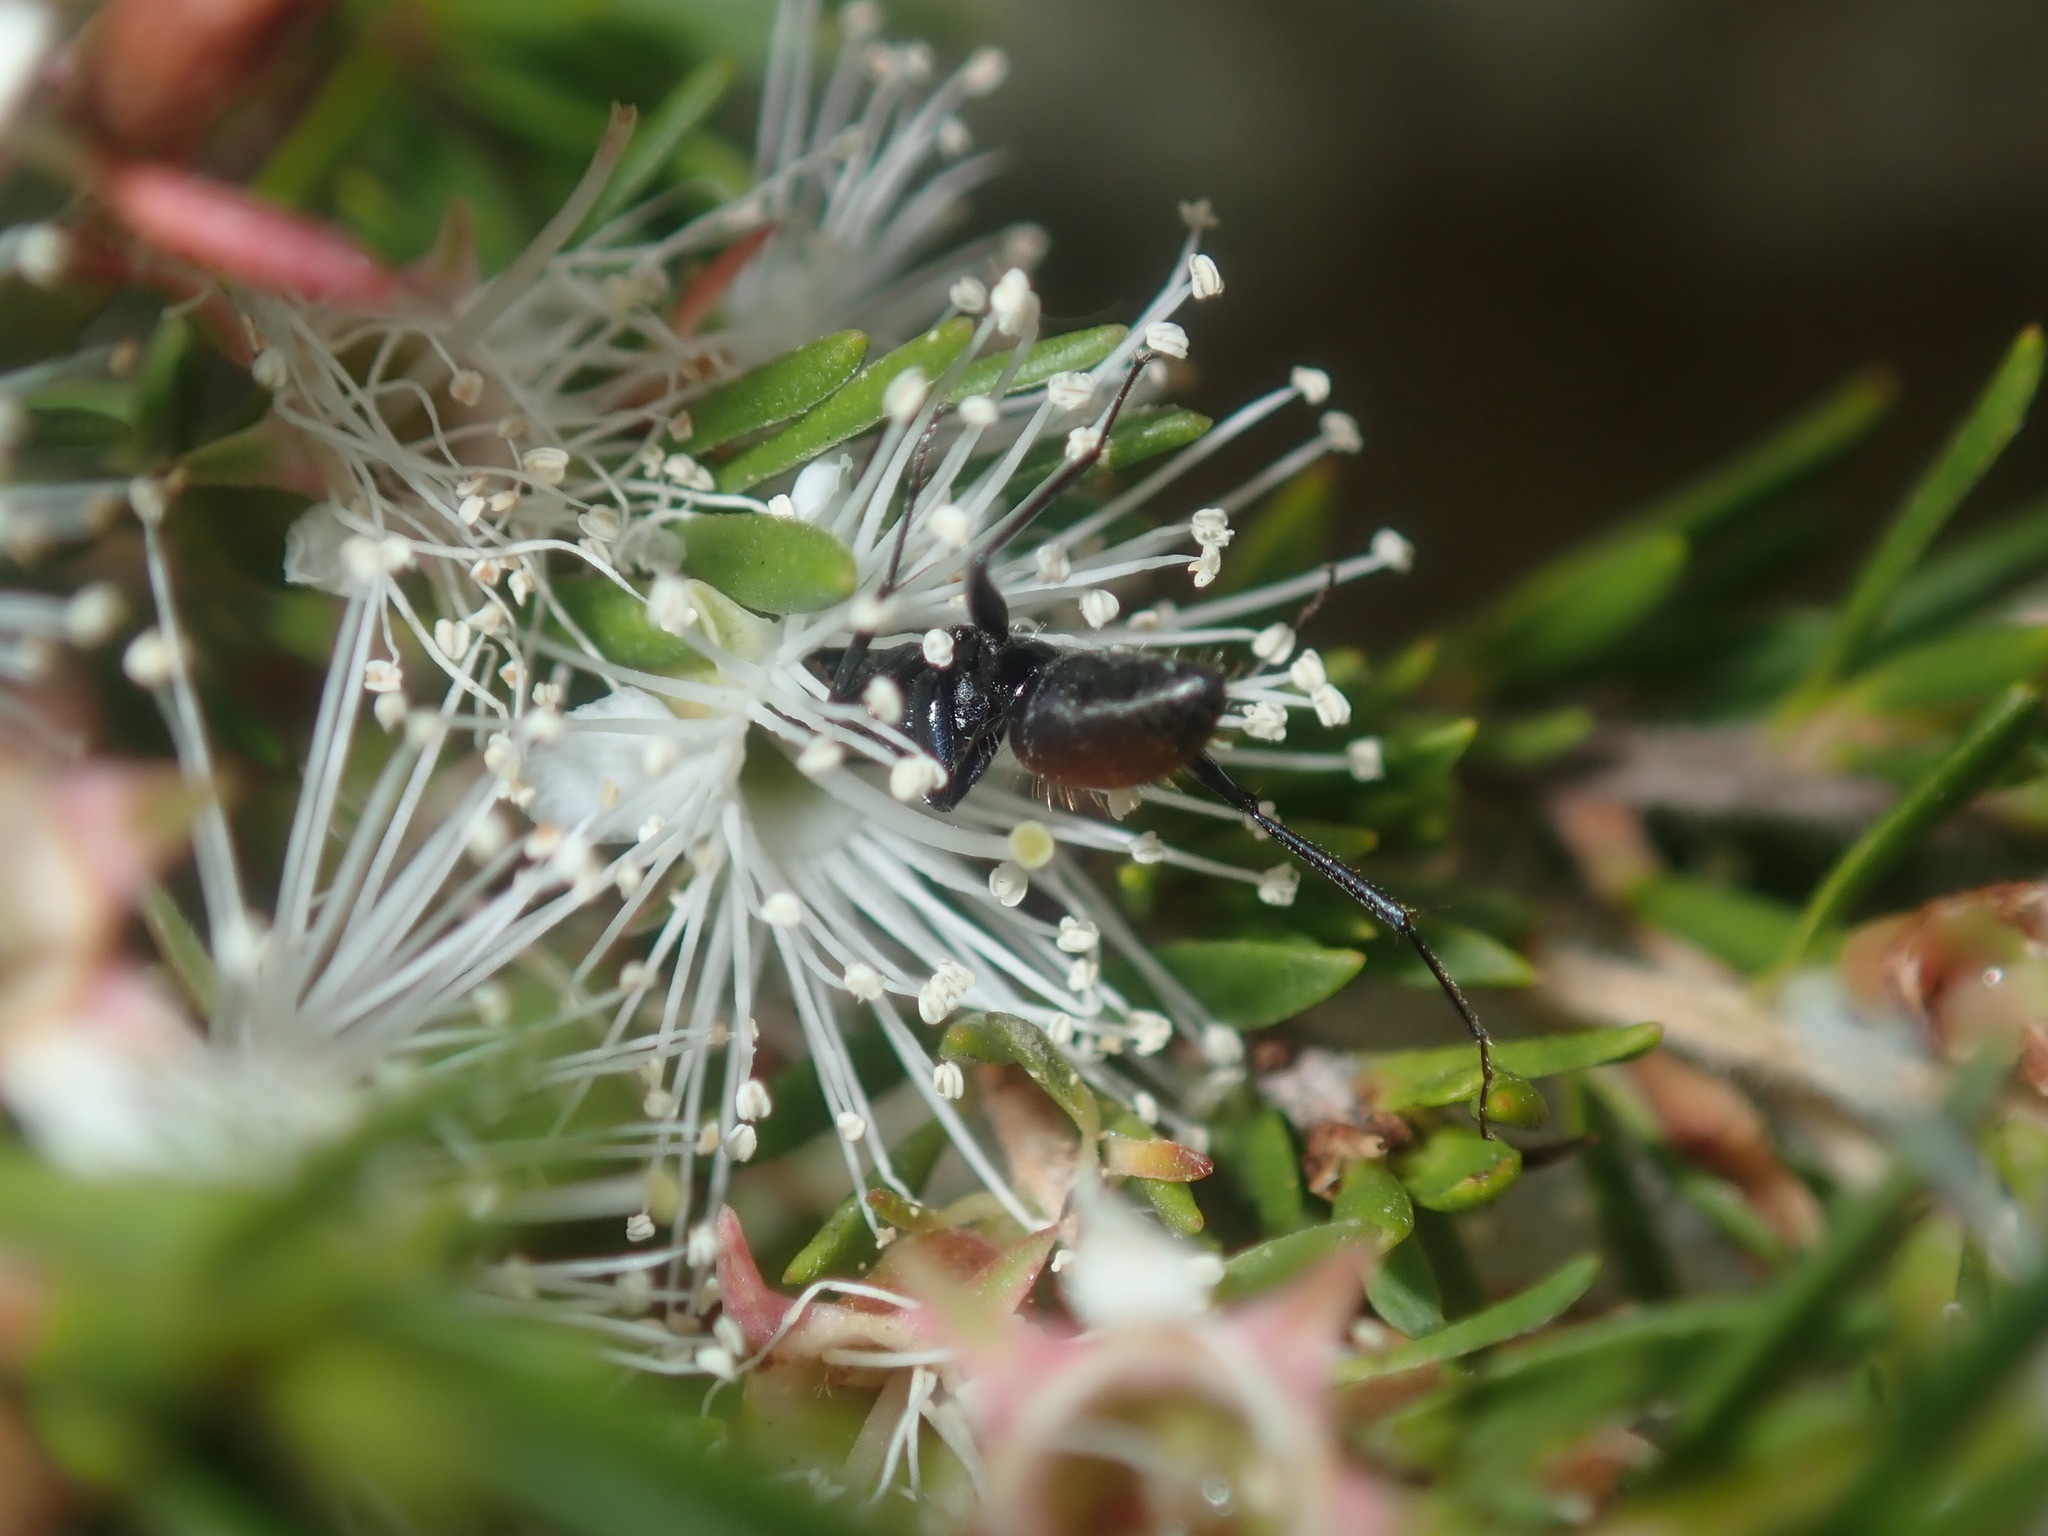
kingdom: Animalia
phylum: Arthropoda
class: Insecta
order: Hymenoptera
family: Formicidae
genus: Camponotus
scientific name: Camponotus aeneopilosus
